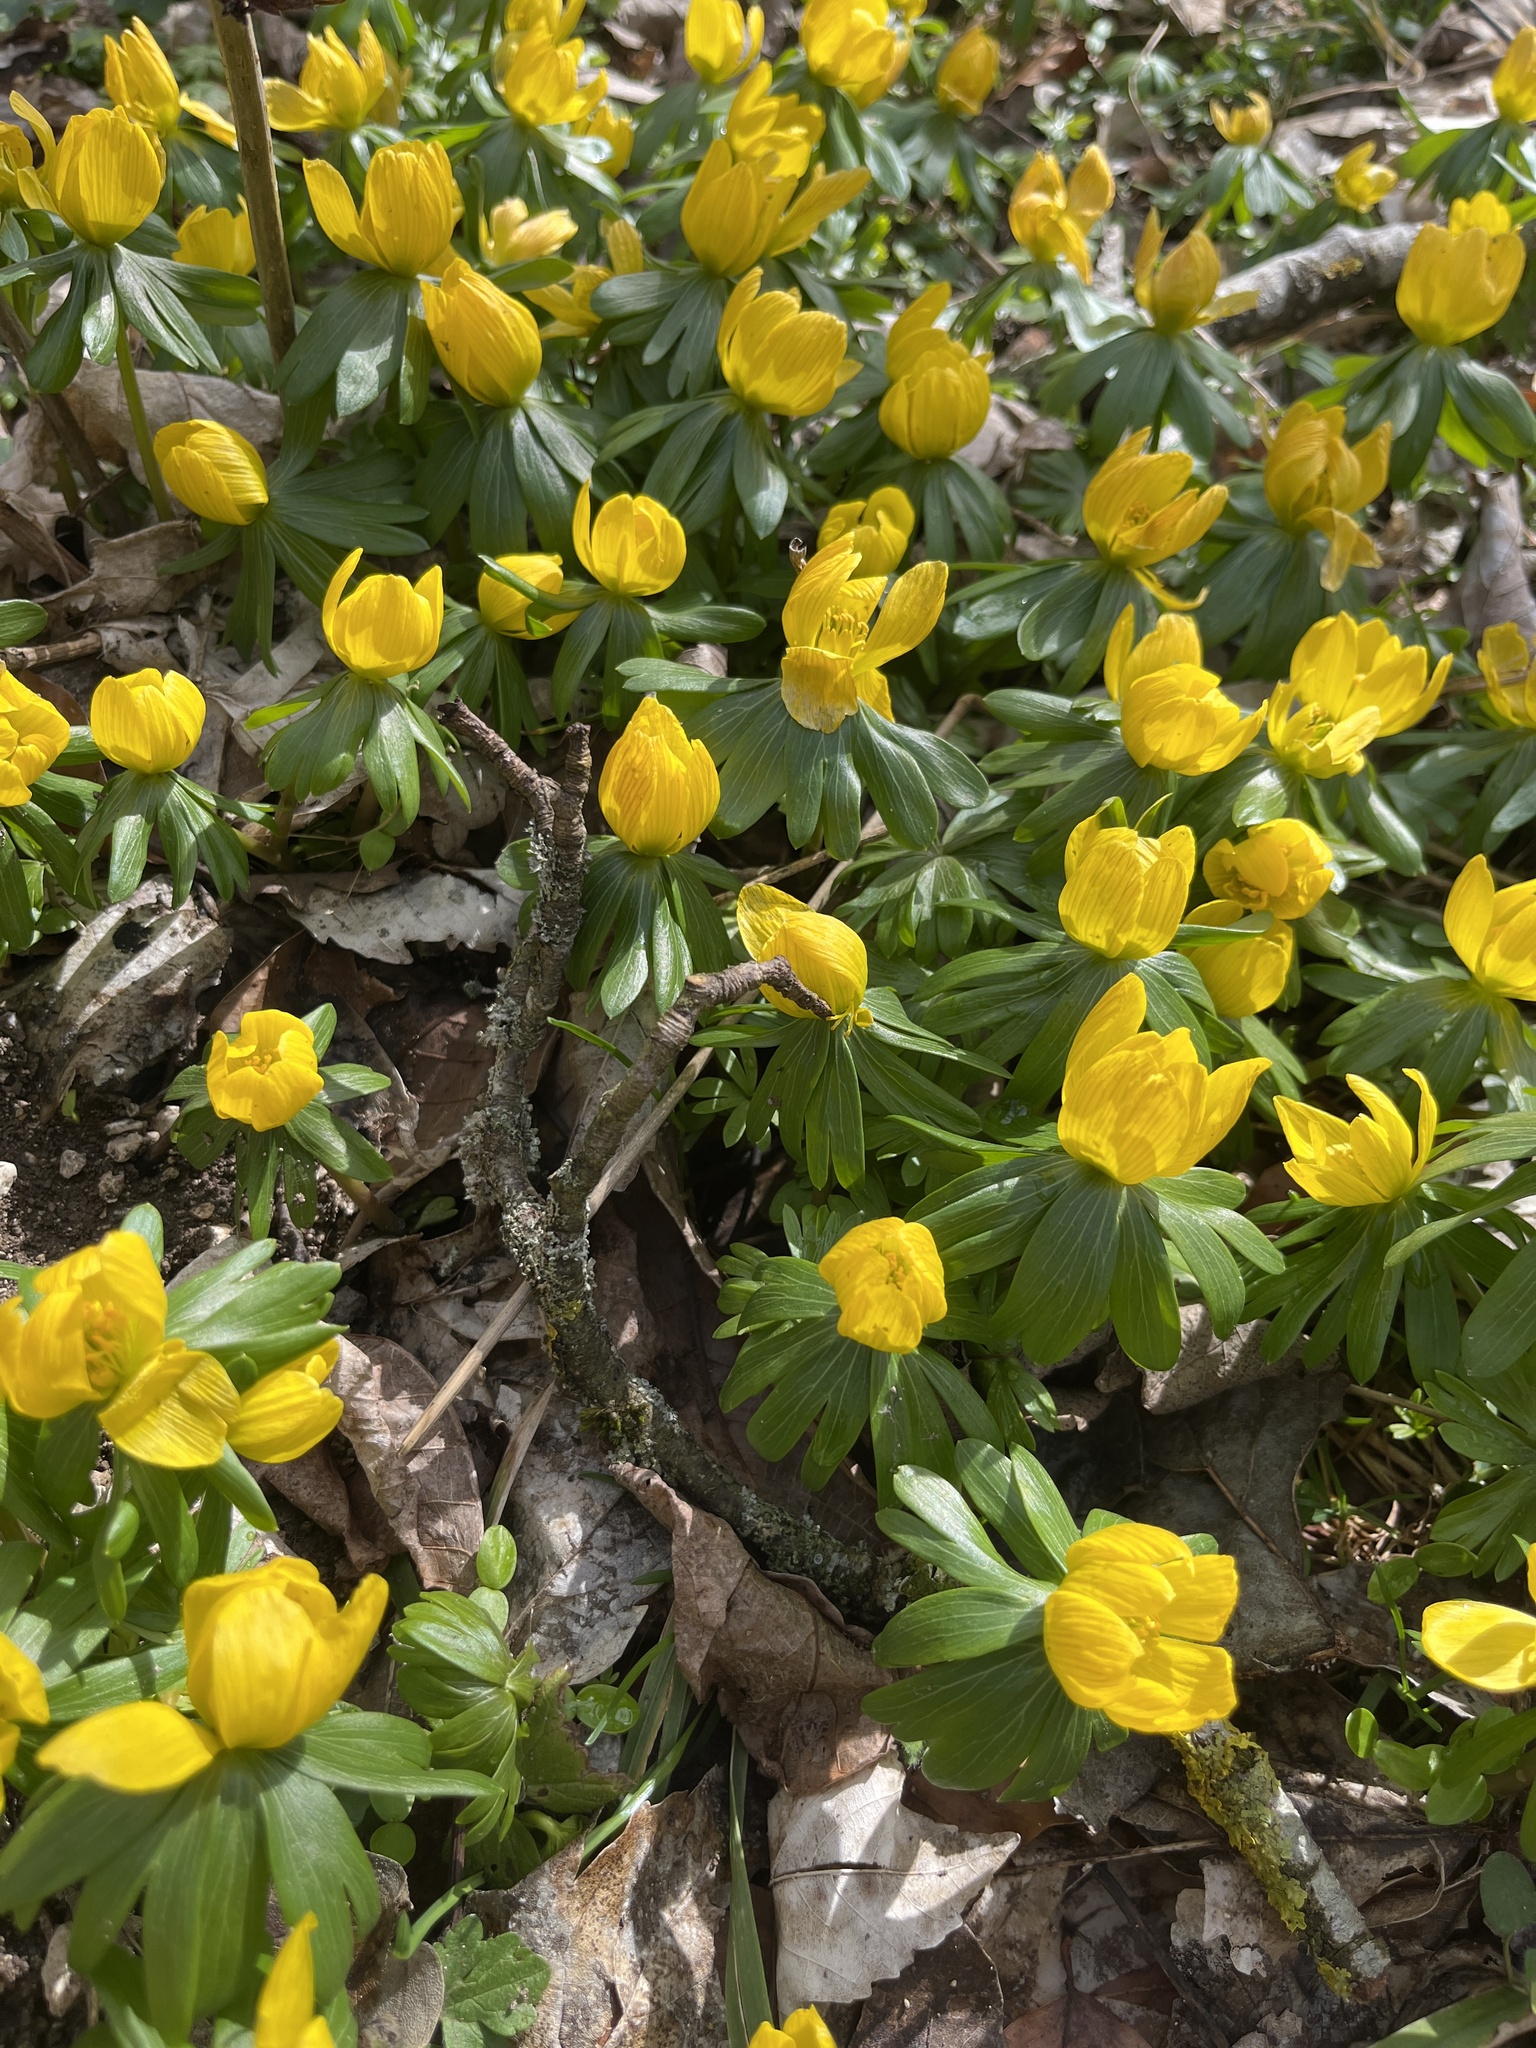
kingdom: Plantae
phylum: Tracheophyta
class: Magnoliopsida
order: Ranunculales
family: Ranunculaceae
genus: Eranthis
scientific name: Eranthis hyemalis
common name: Winter aconite
